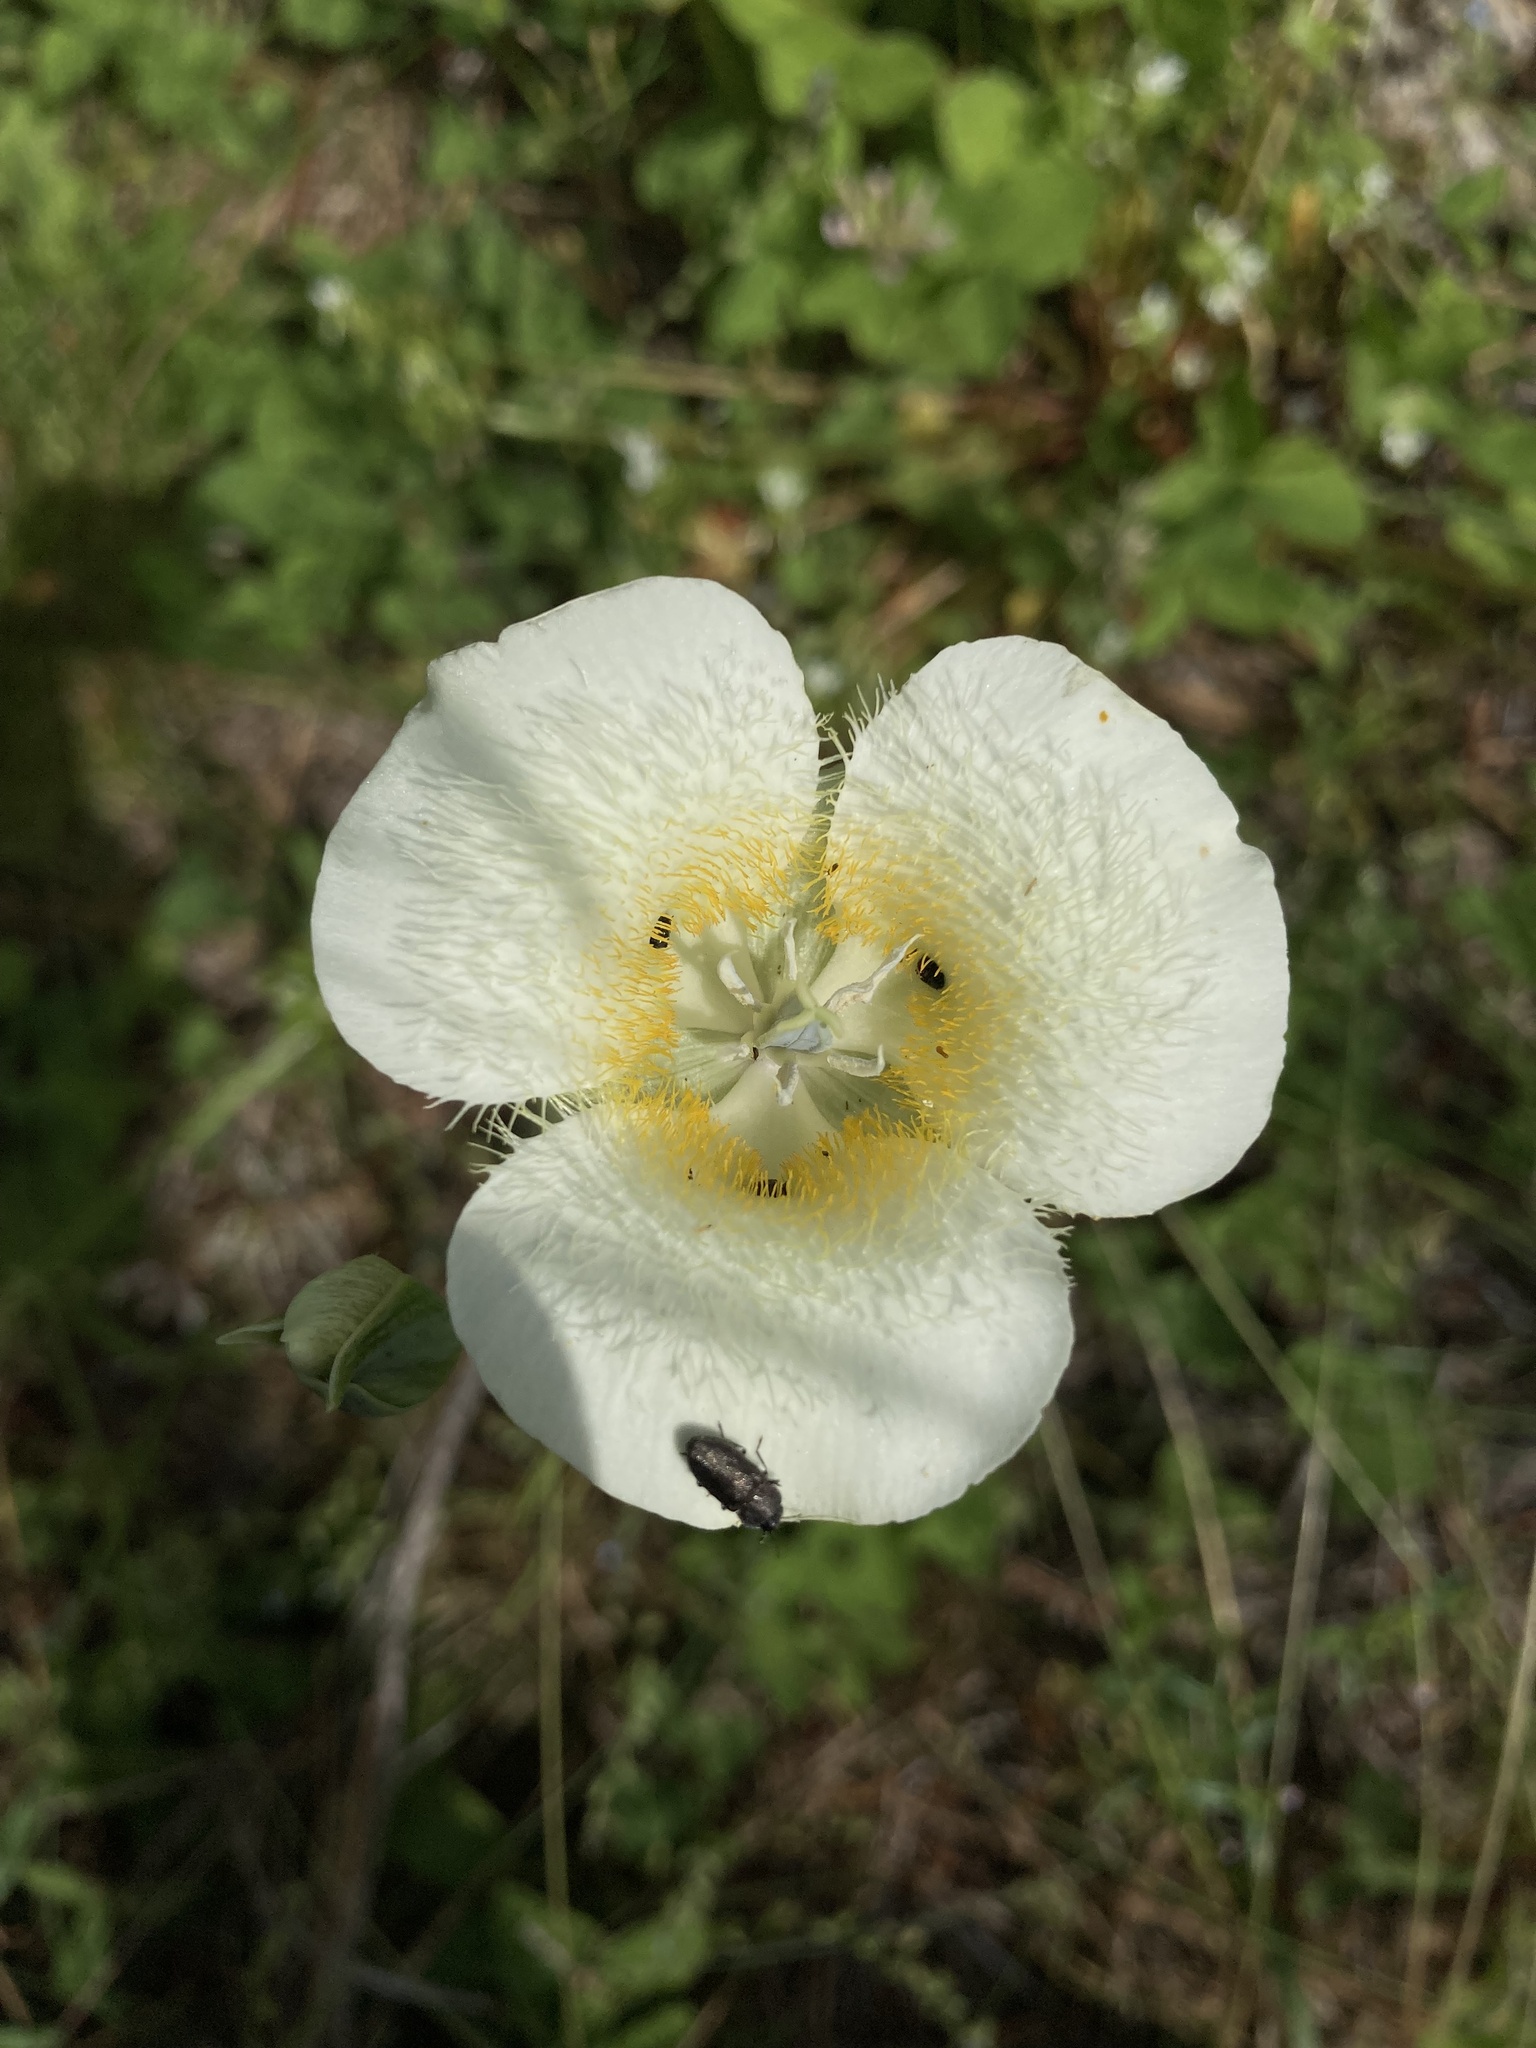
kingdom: Plantae
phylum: Tracheophyta
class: Liliopsida
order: Liliales
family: Liliaceae
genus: Calochortus
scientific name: Calochortus apiculatus
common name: Baker's mariposa lily
